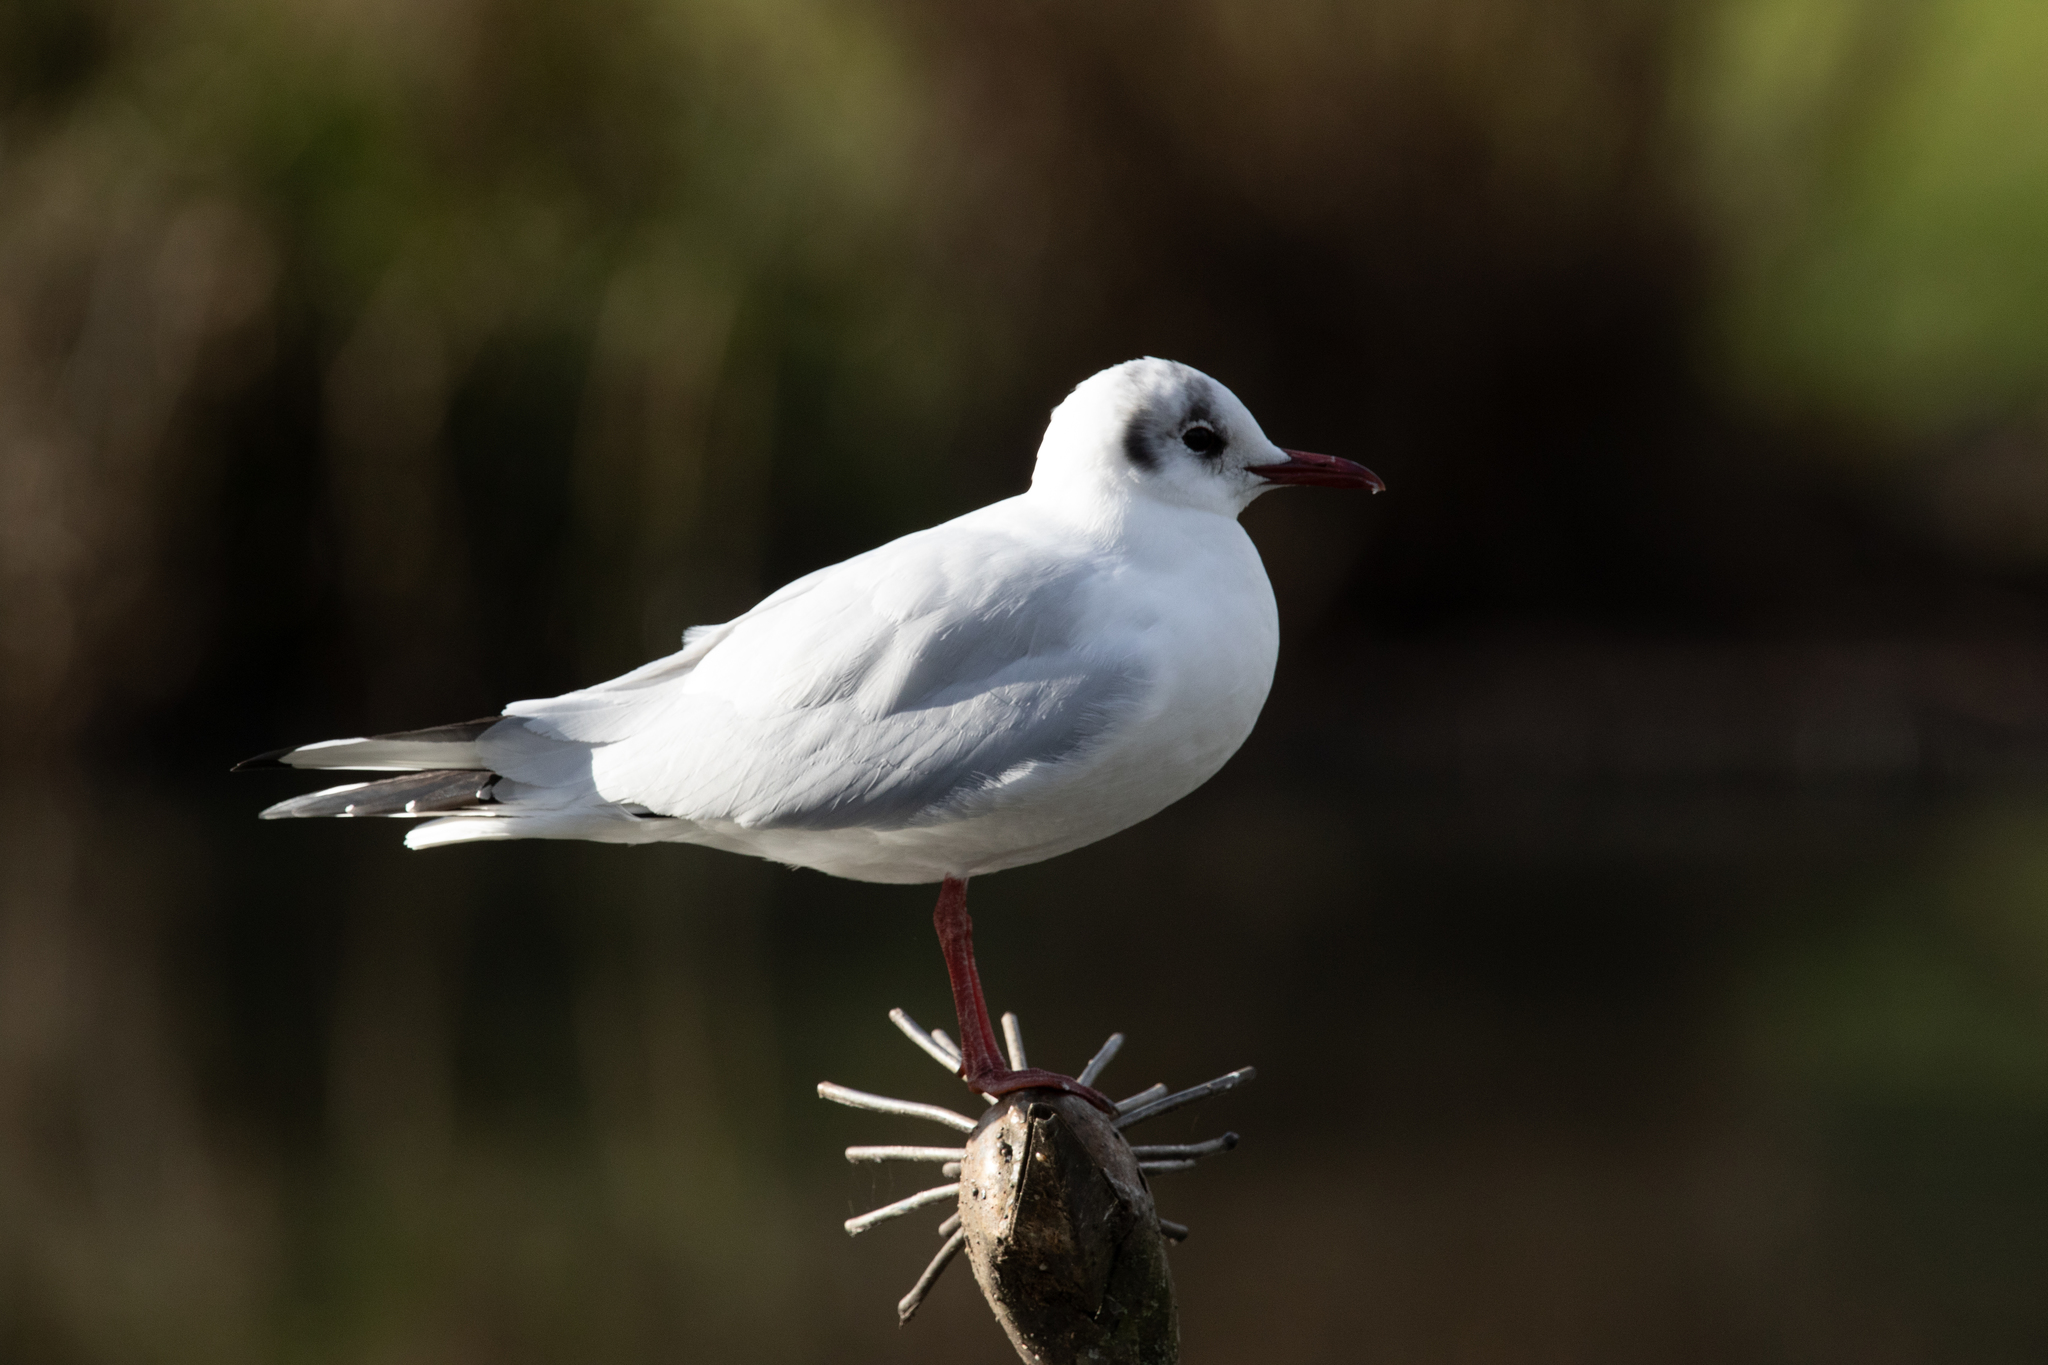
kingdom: Animalia
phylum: Chordata
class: Aves
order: Charadriiformes
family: Laridae
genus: Chroicocephalus
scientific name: Chroicocephalus ridibundus
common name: Black-headed gull
